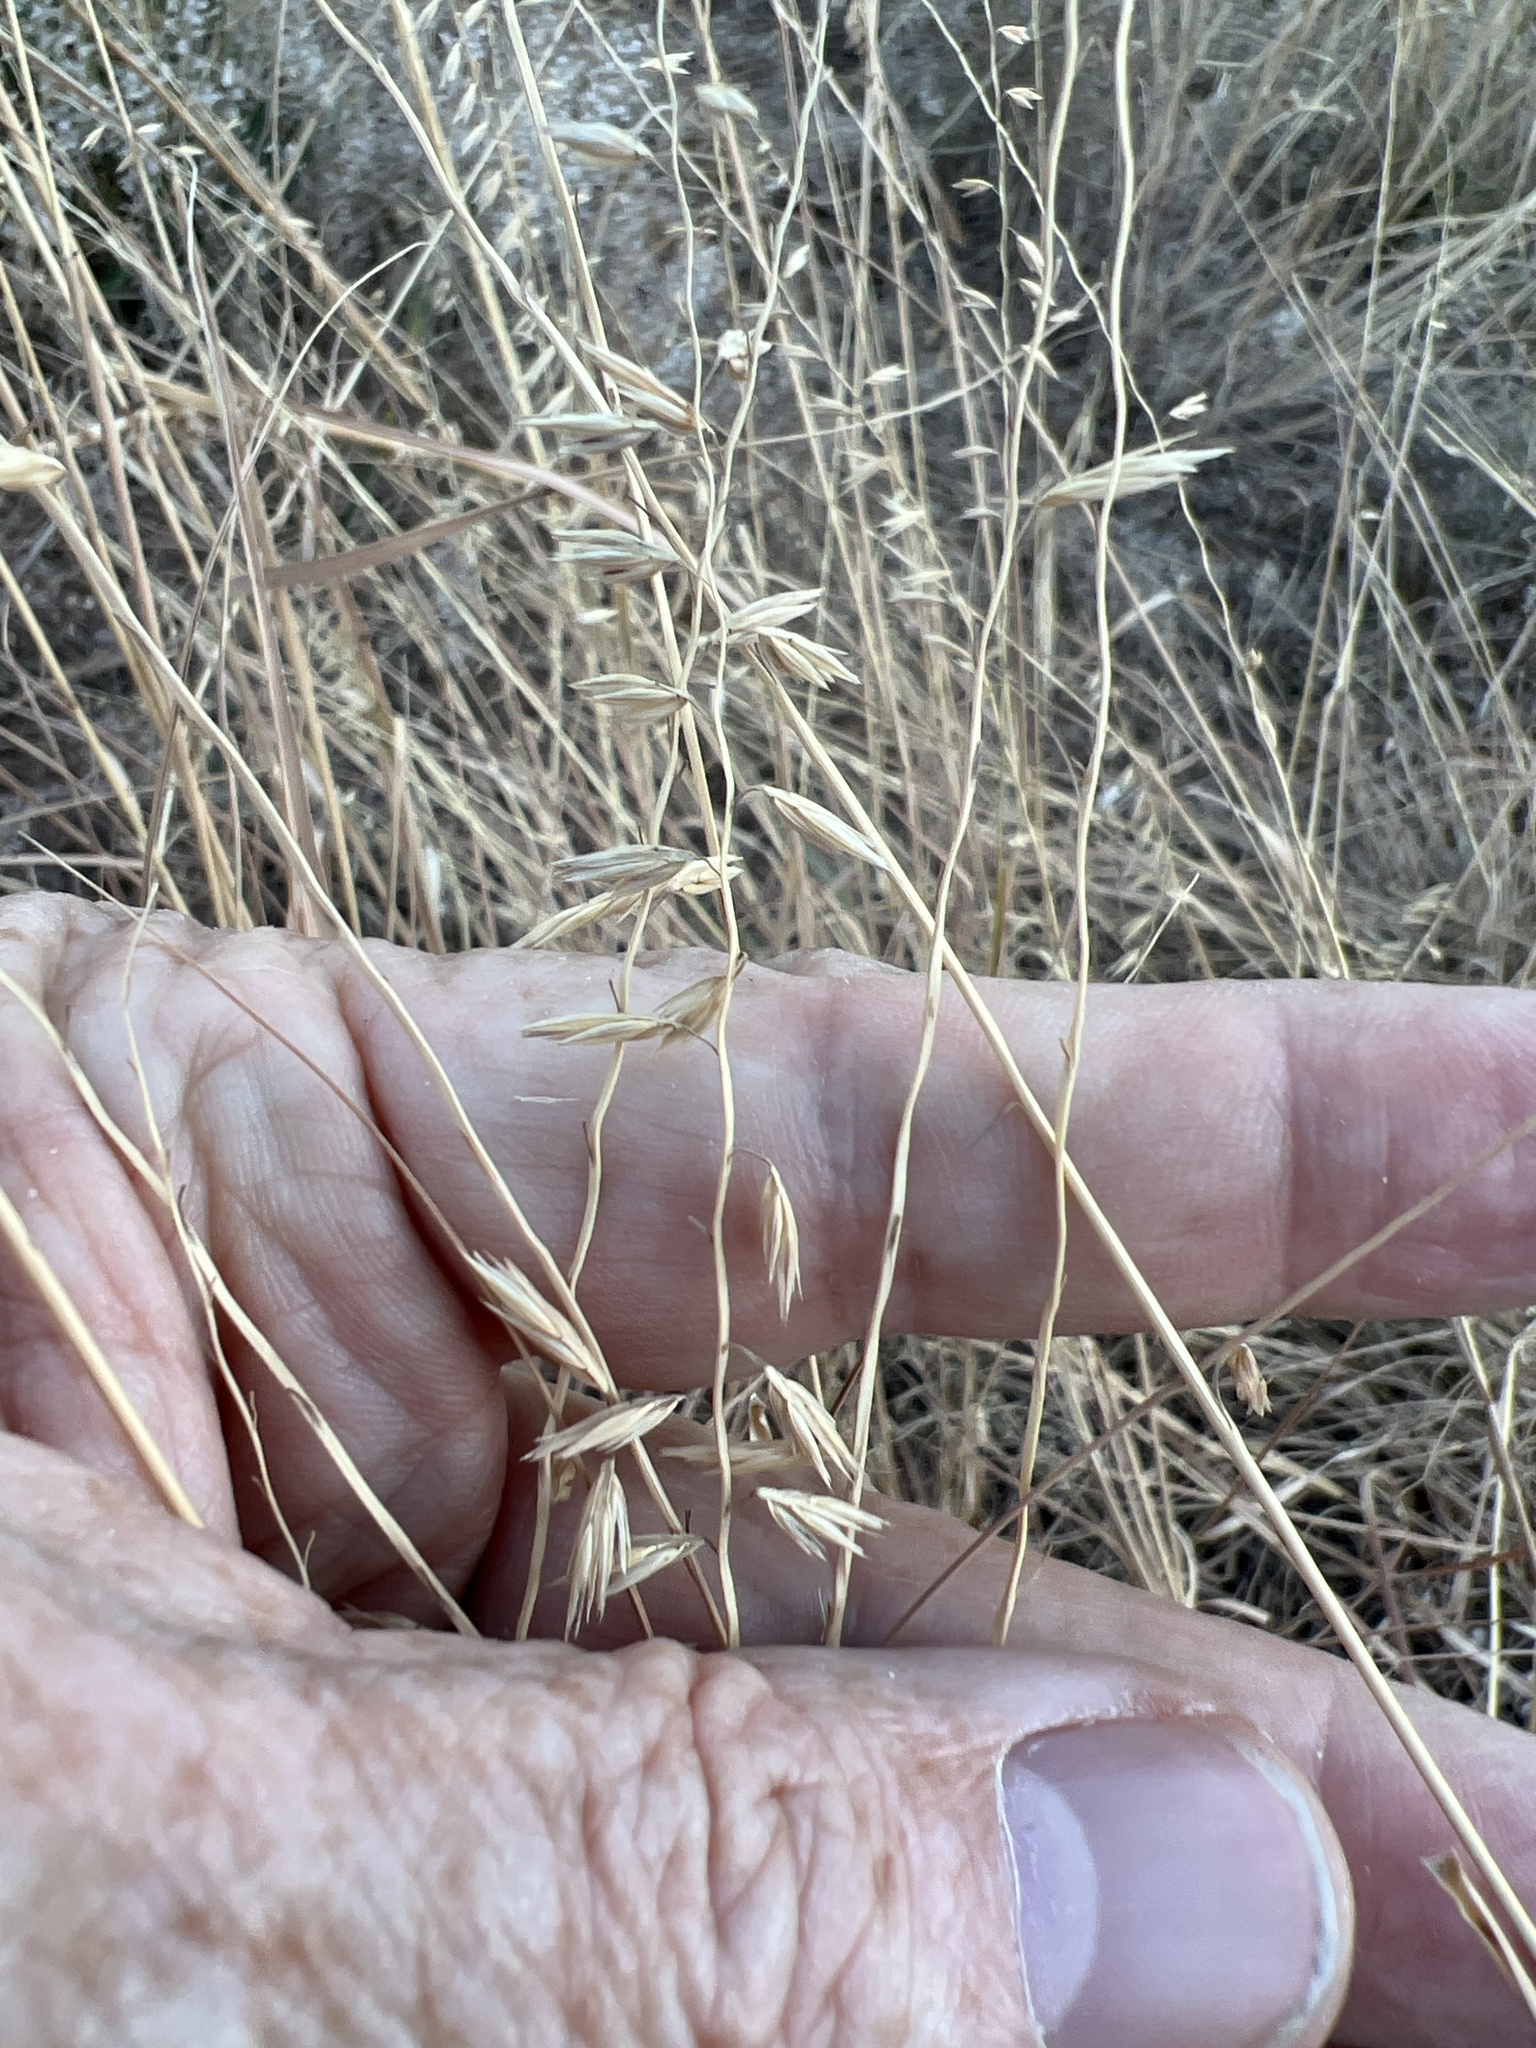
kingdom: Plantae
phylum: Tracheophyta
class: Liliopsida
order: Poales
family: Poaceae
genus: Bouteloua
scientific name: Bouteloua curtipendula
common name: Side-oats grama
